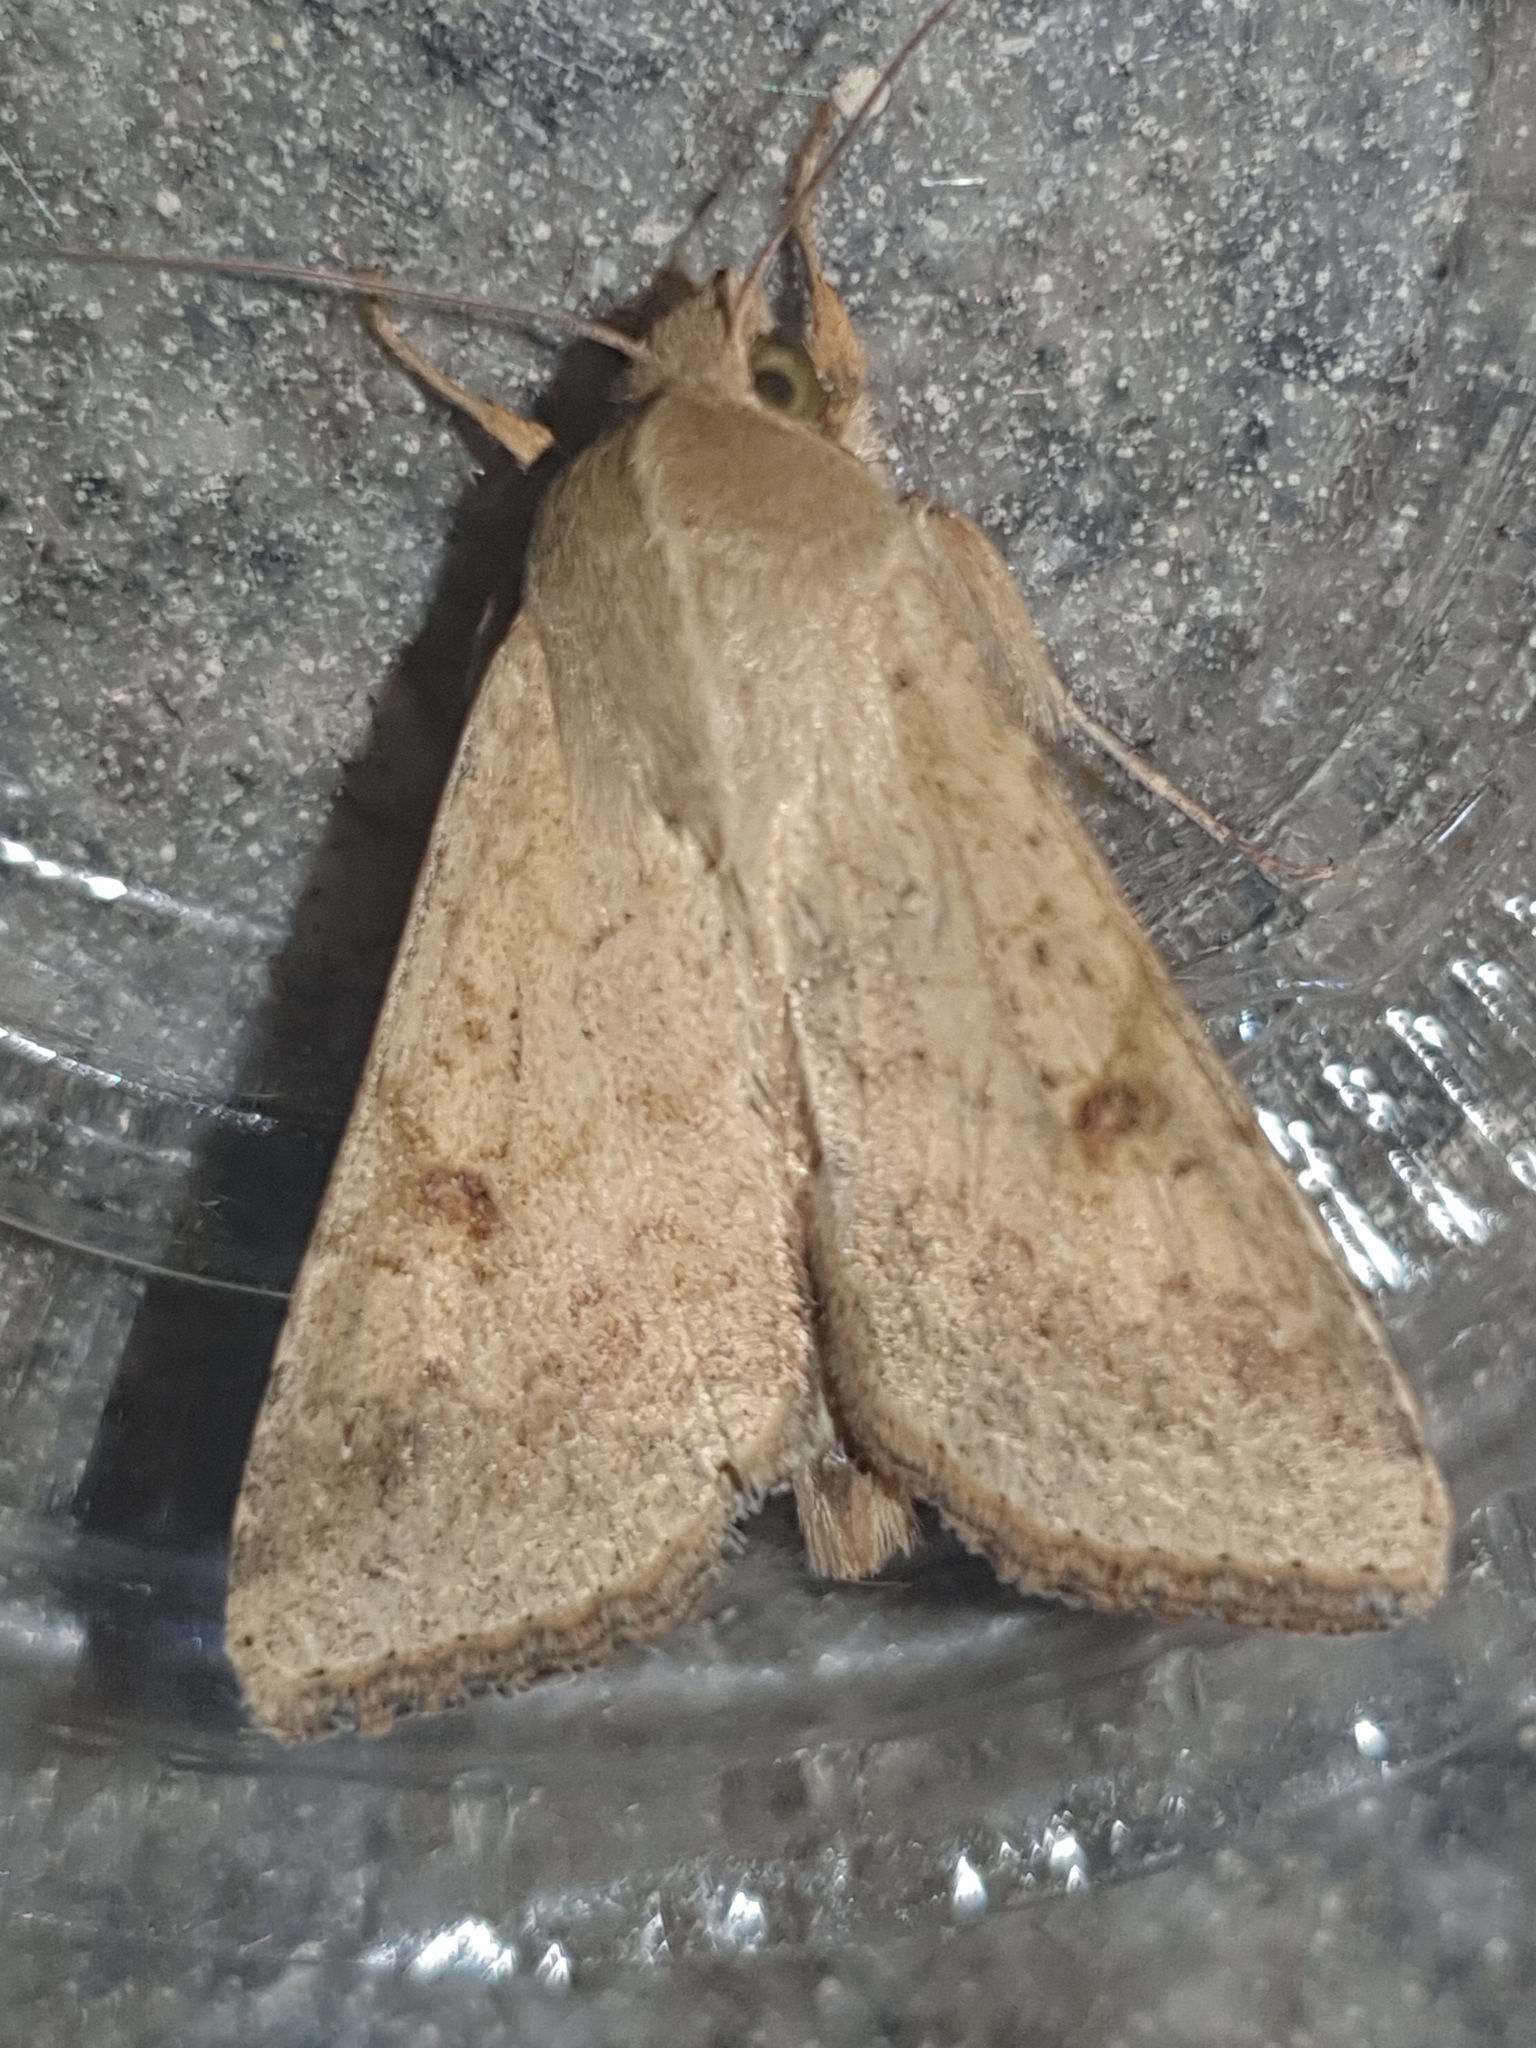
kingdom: Animalia
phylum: Arthropoda
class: Insecta
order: Lepidoptera
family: Noctuidae
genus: Helicoverpa
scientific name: Helicoverpa armigera
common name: Cotton bollworm
